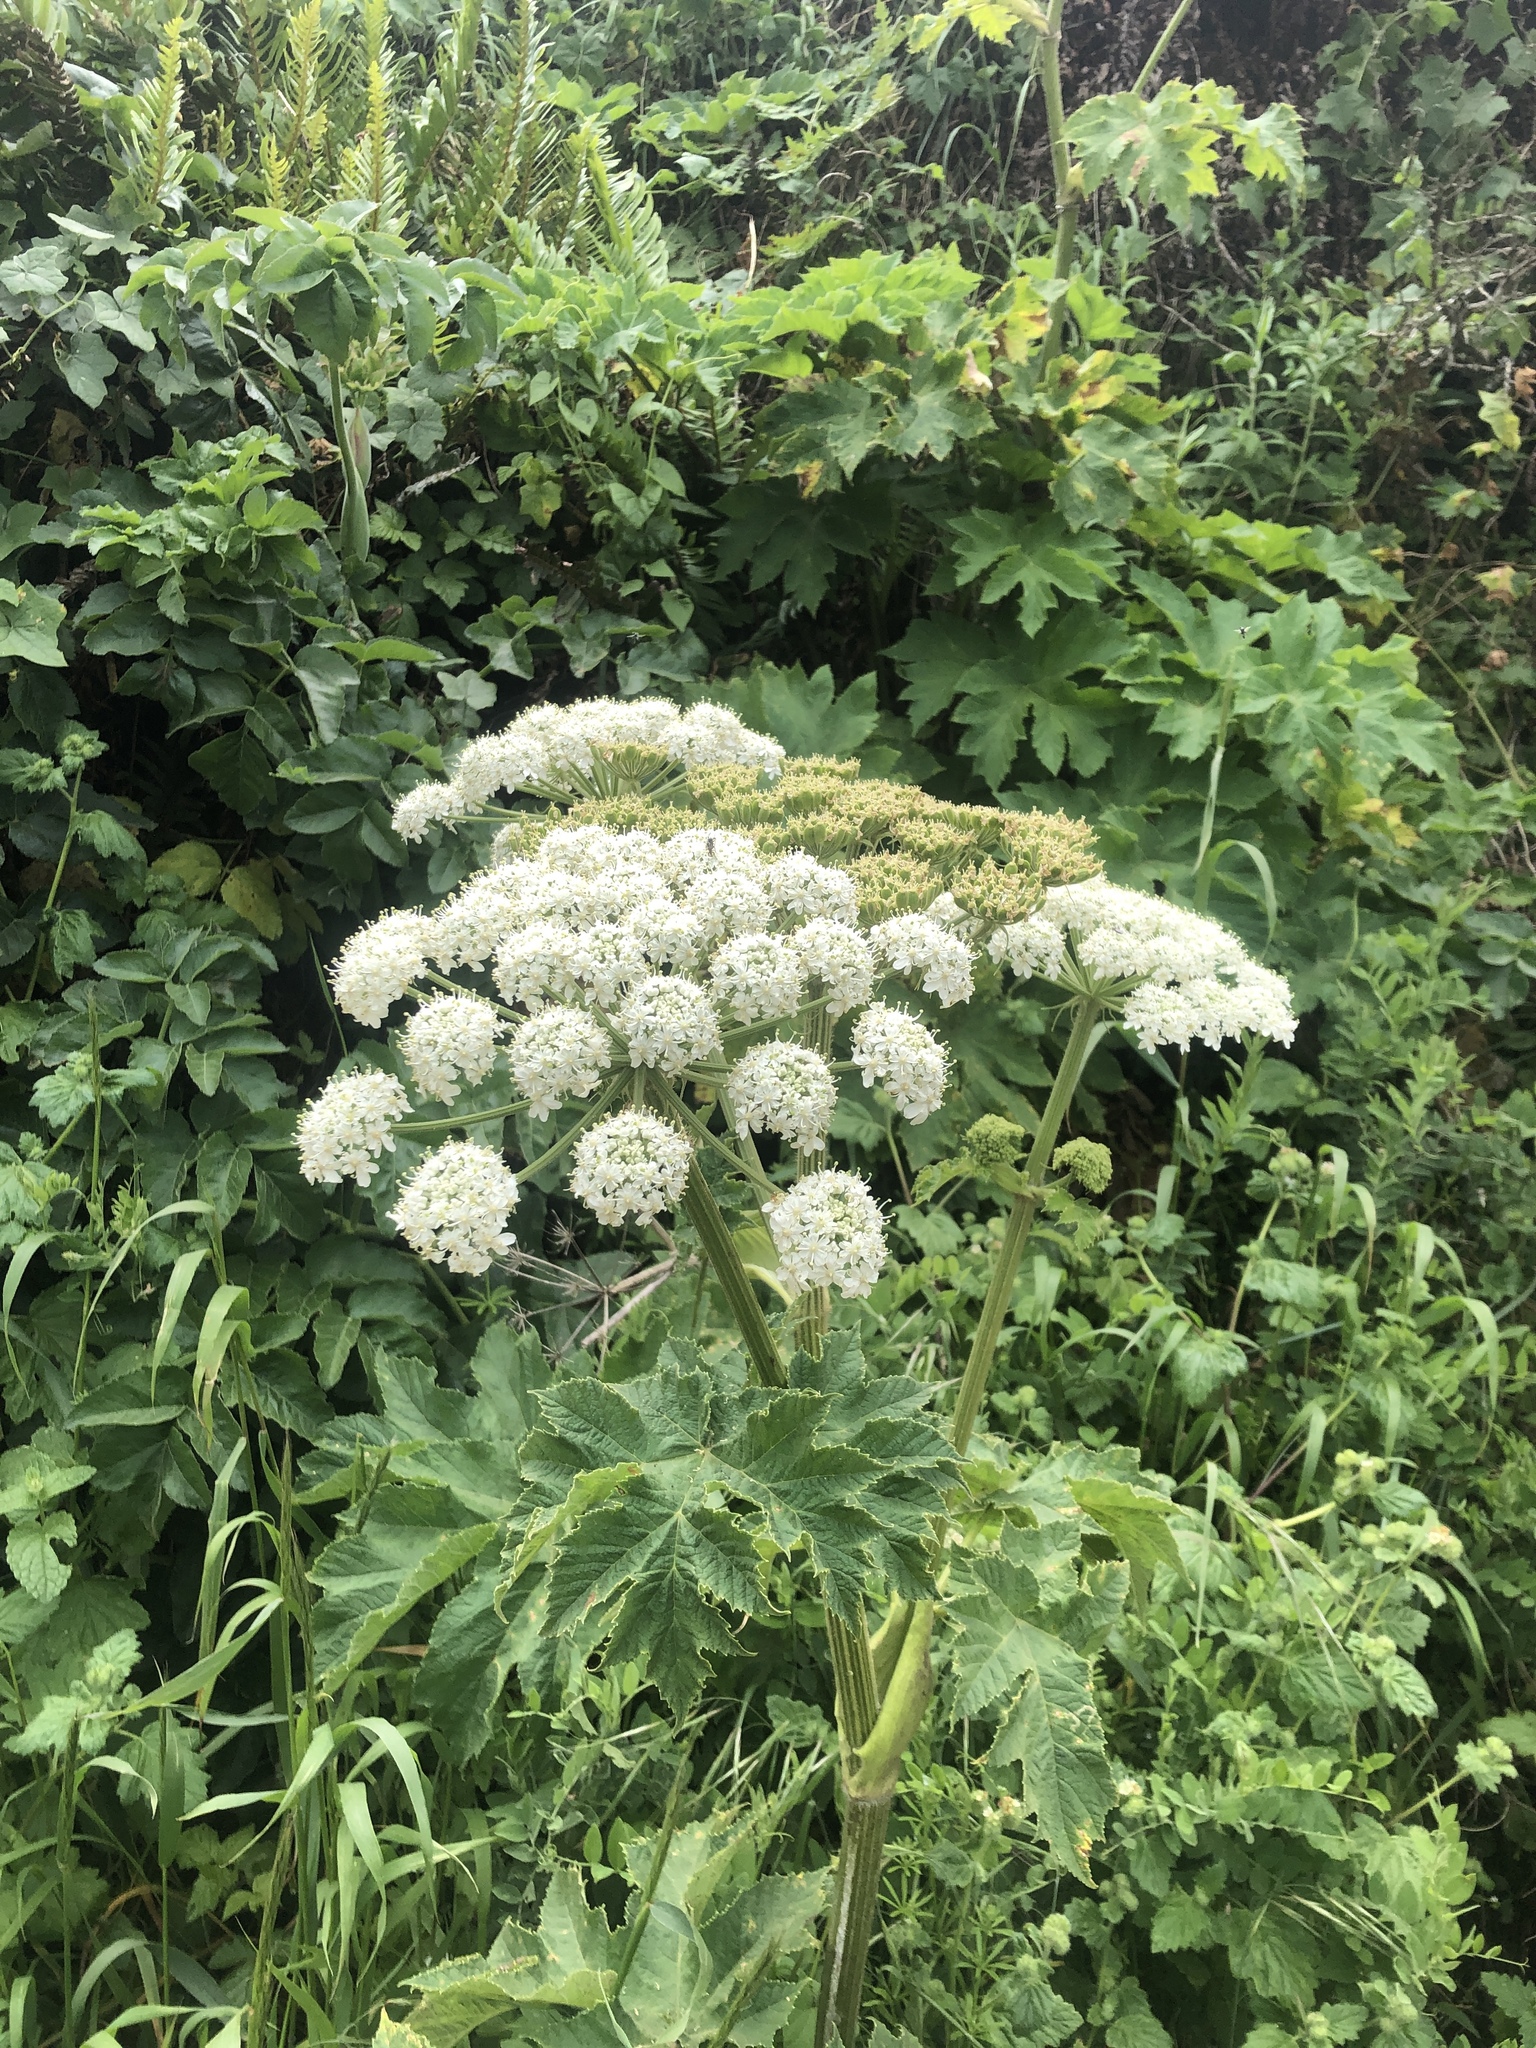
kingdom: Plantae
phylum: Tracheophyta
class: Magnoliopsida
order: Apiales
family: Apiaceae
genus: Heracleum
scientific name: Heracleum maximum
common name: American cow parsnip
